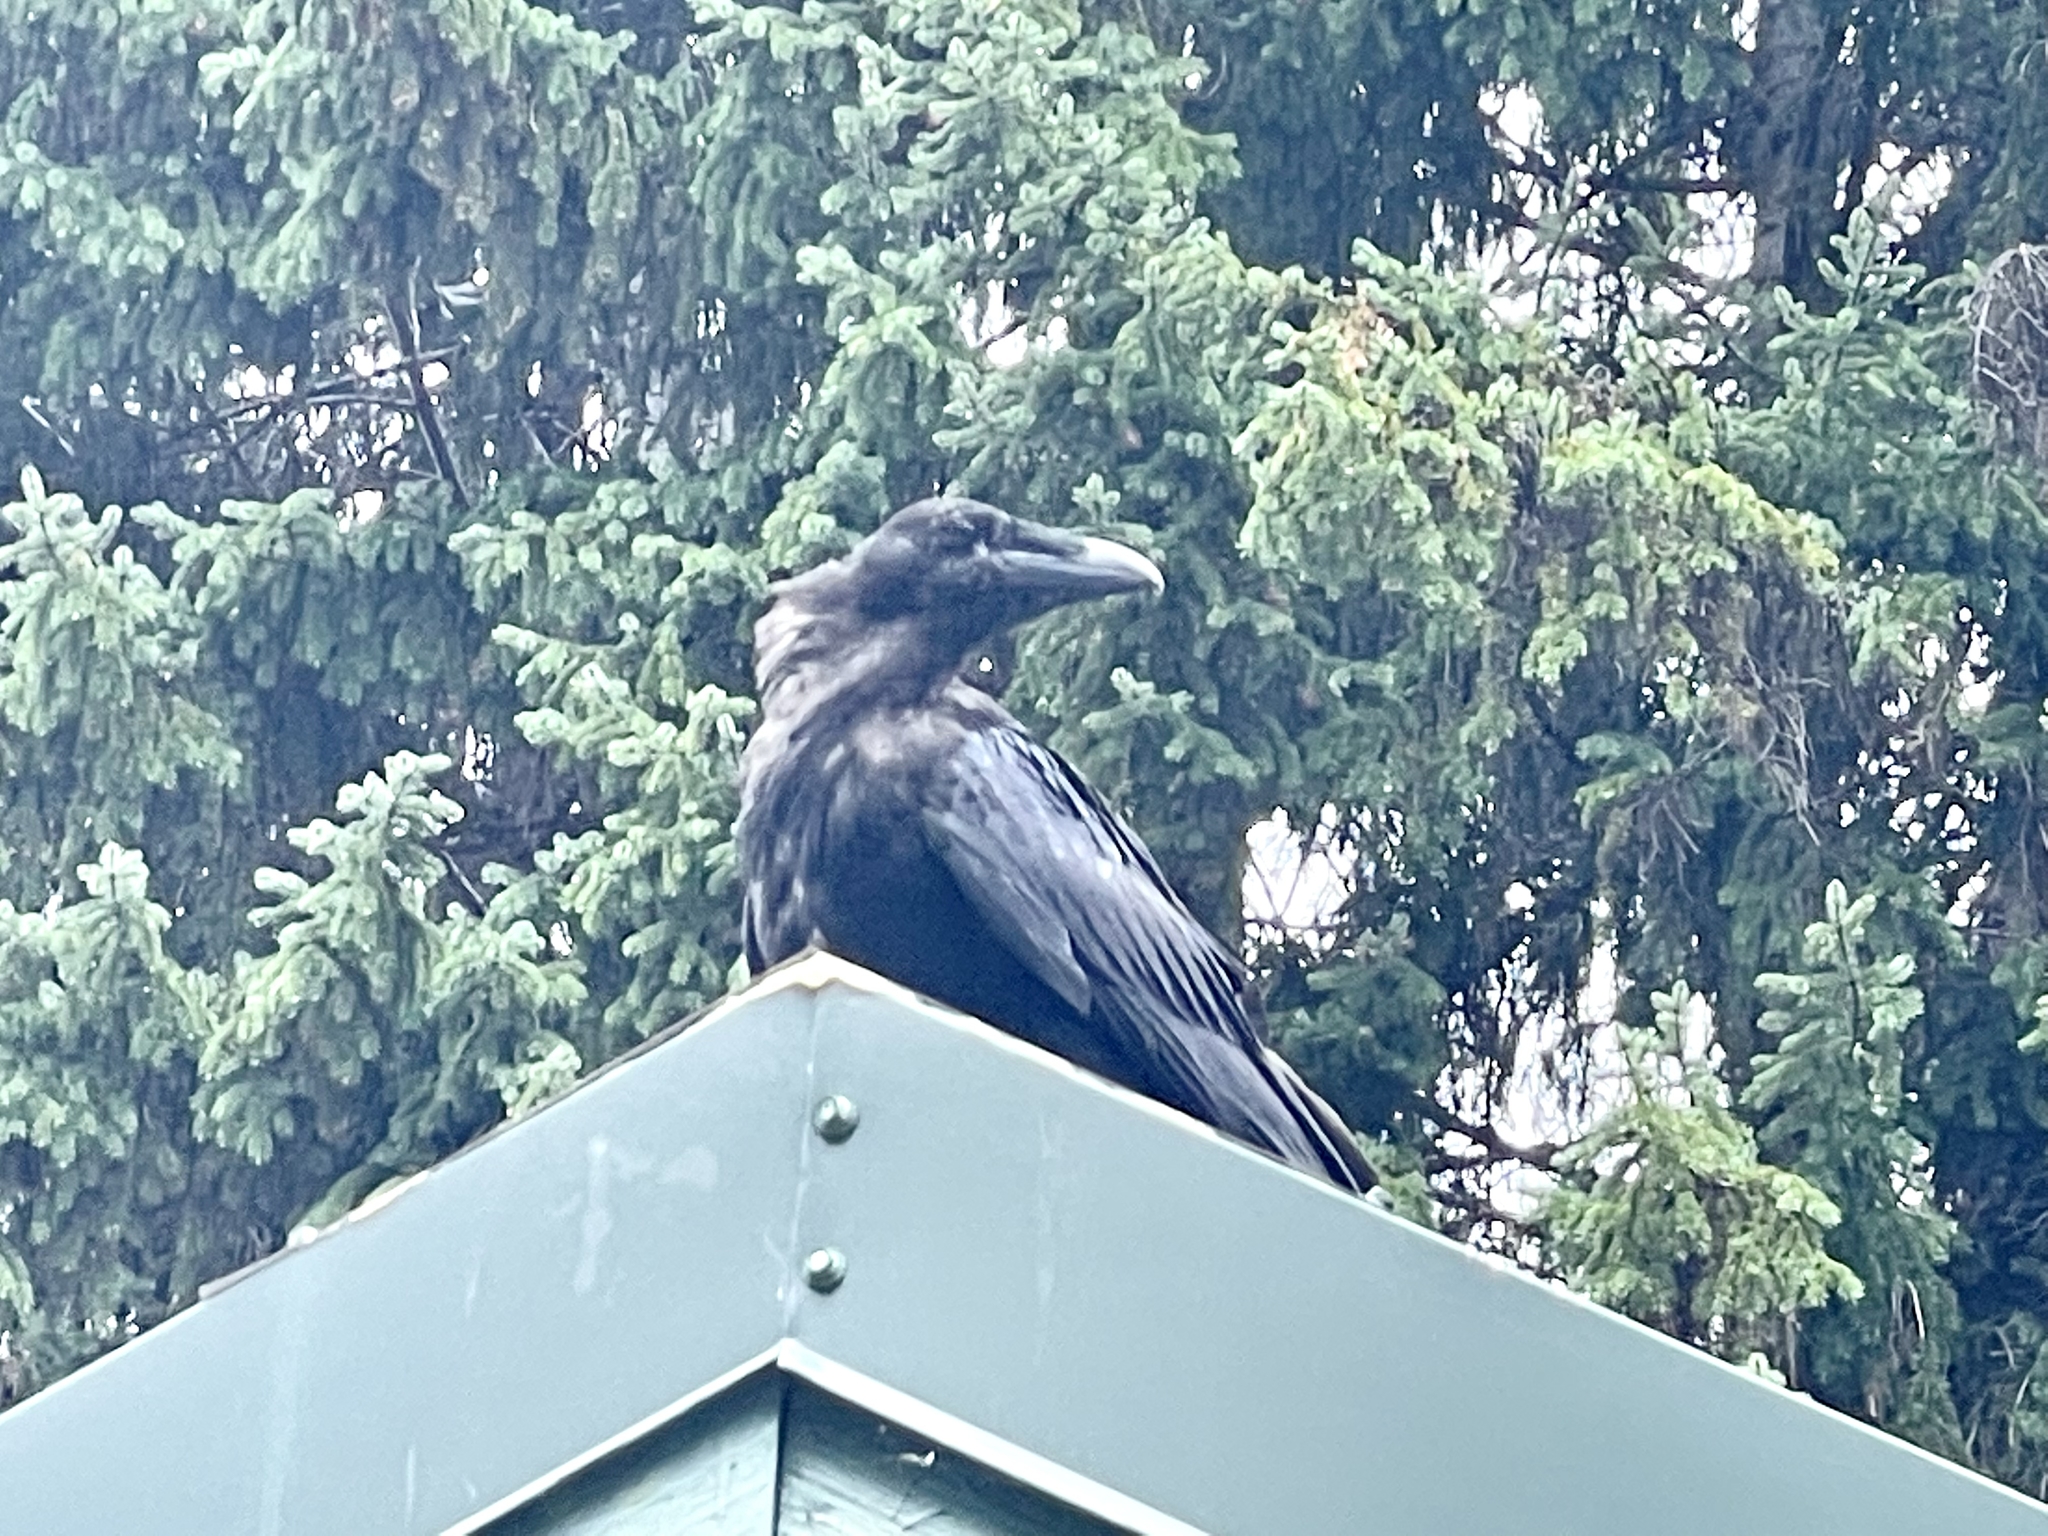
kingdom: Animalia
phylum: Chordata
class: Aves
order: Passeriformes
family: Corvidae
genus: Corvus
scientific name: Corvus corax
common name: Common raven
